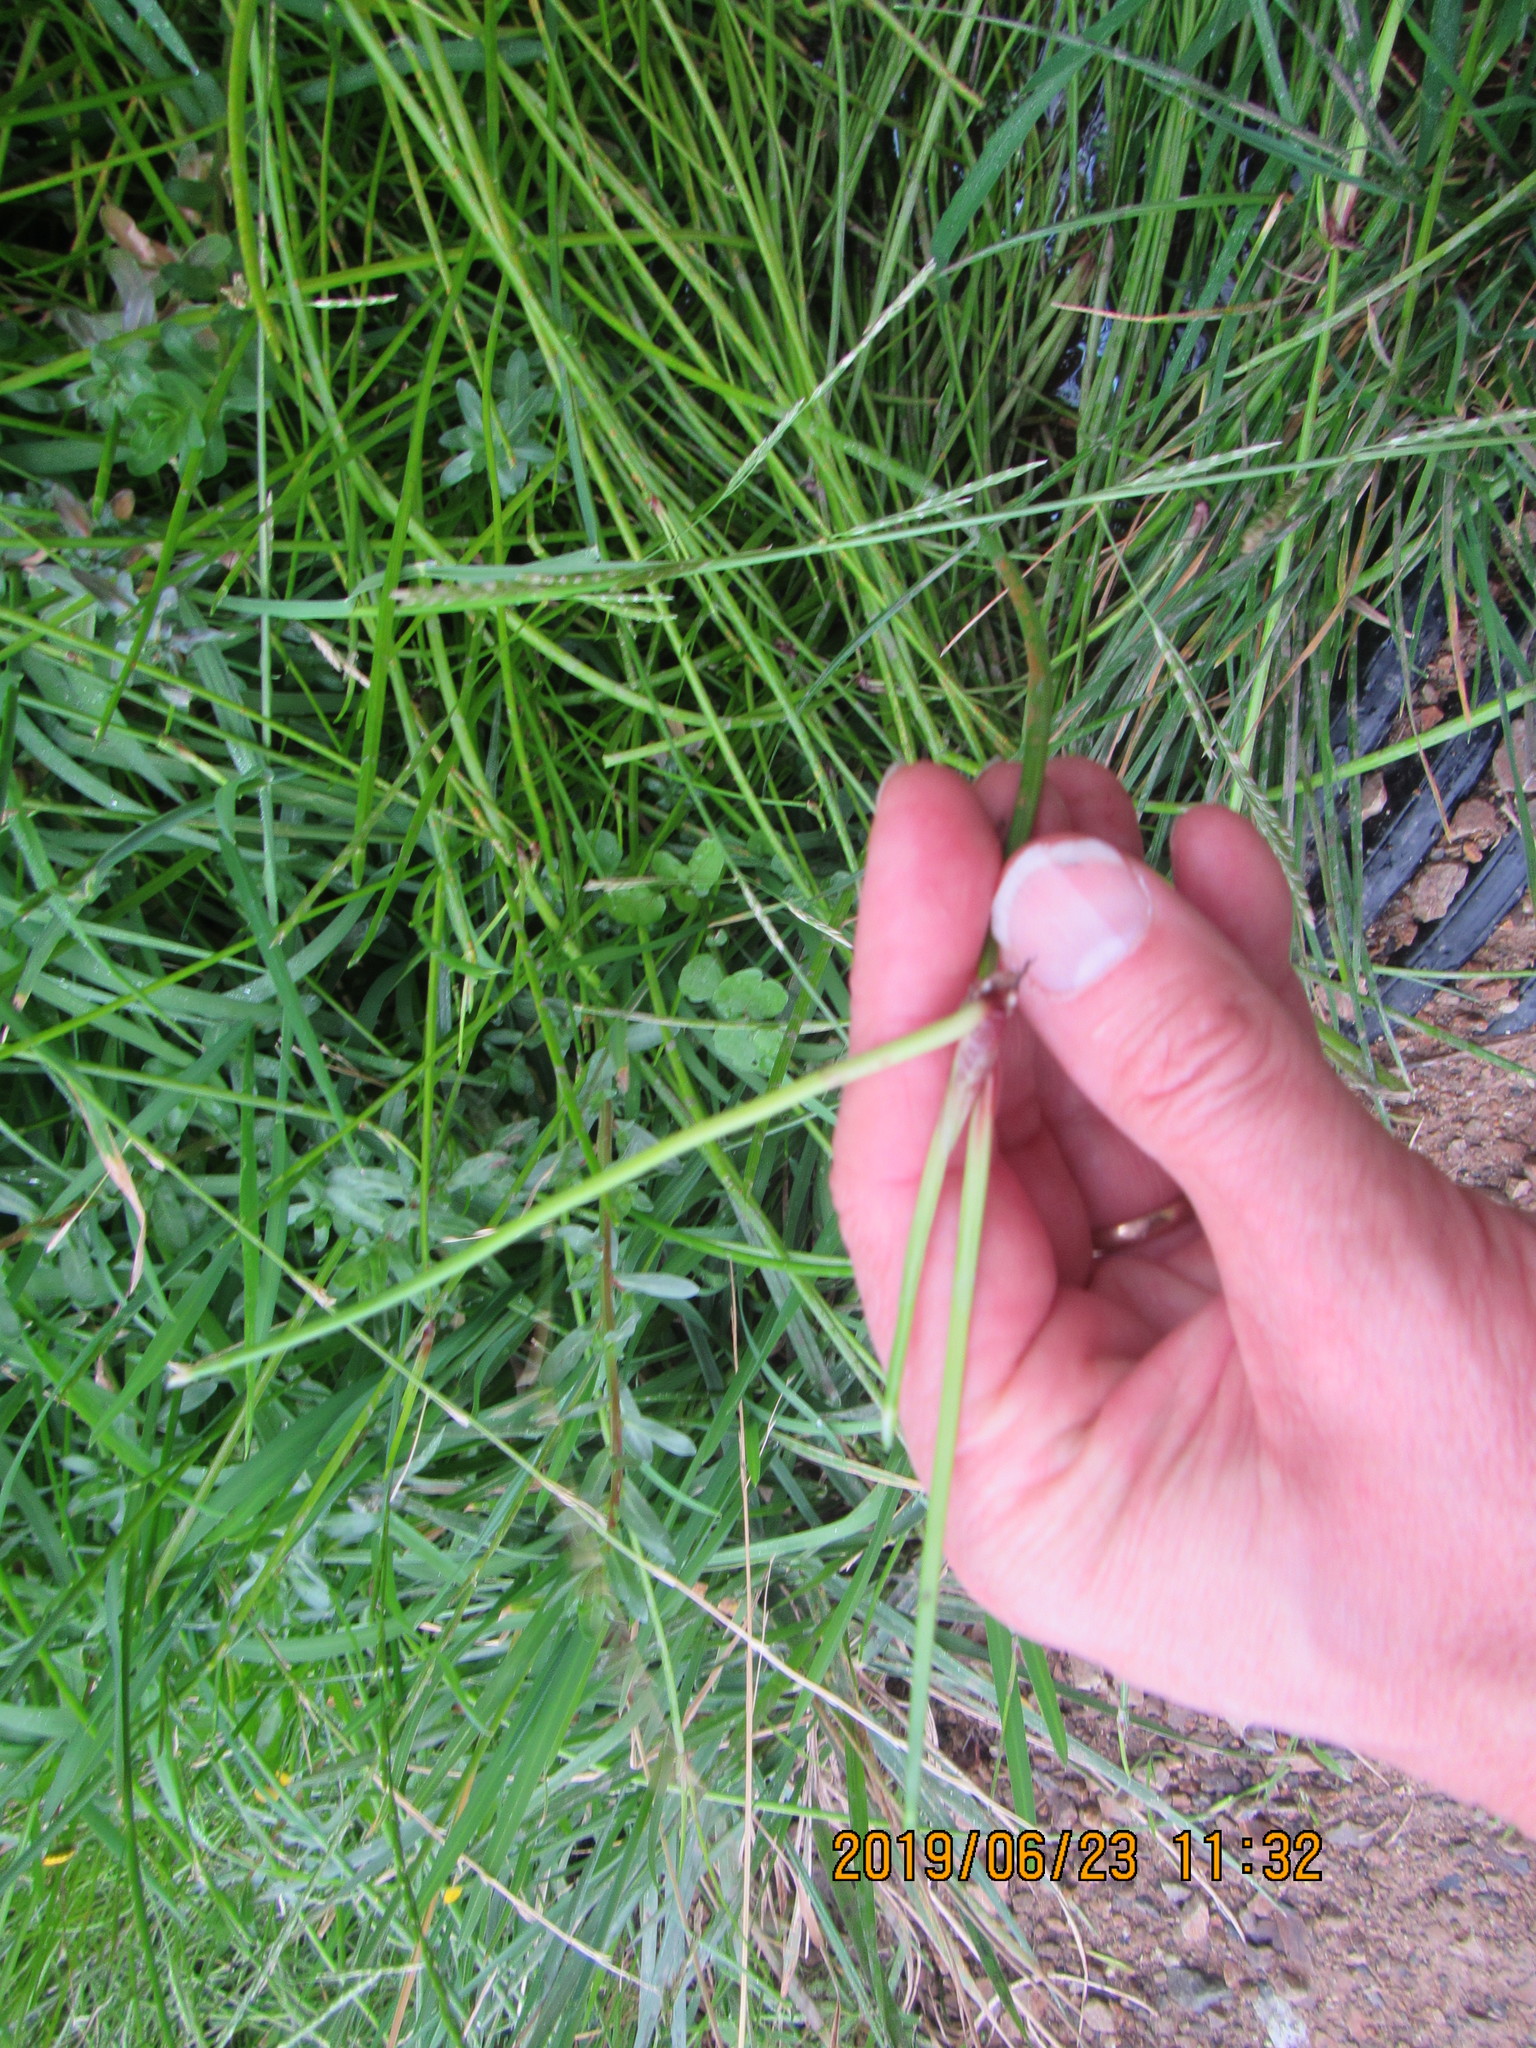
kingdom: Plantae
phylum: Tracheophyta
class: Liliopsida
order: Poales
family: Cyperaceae
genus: Isolepis
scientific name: Isolepis prolifera
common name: Proliferating bulrush
